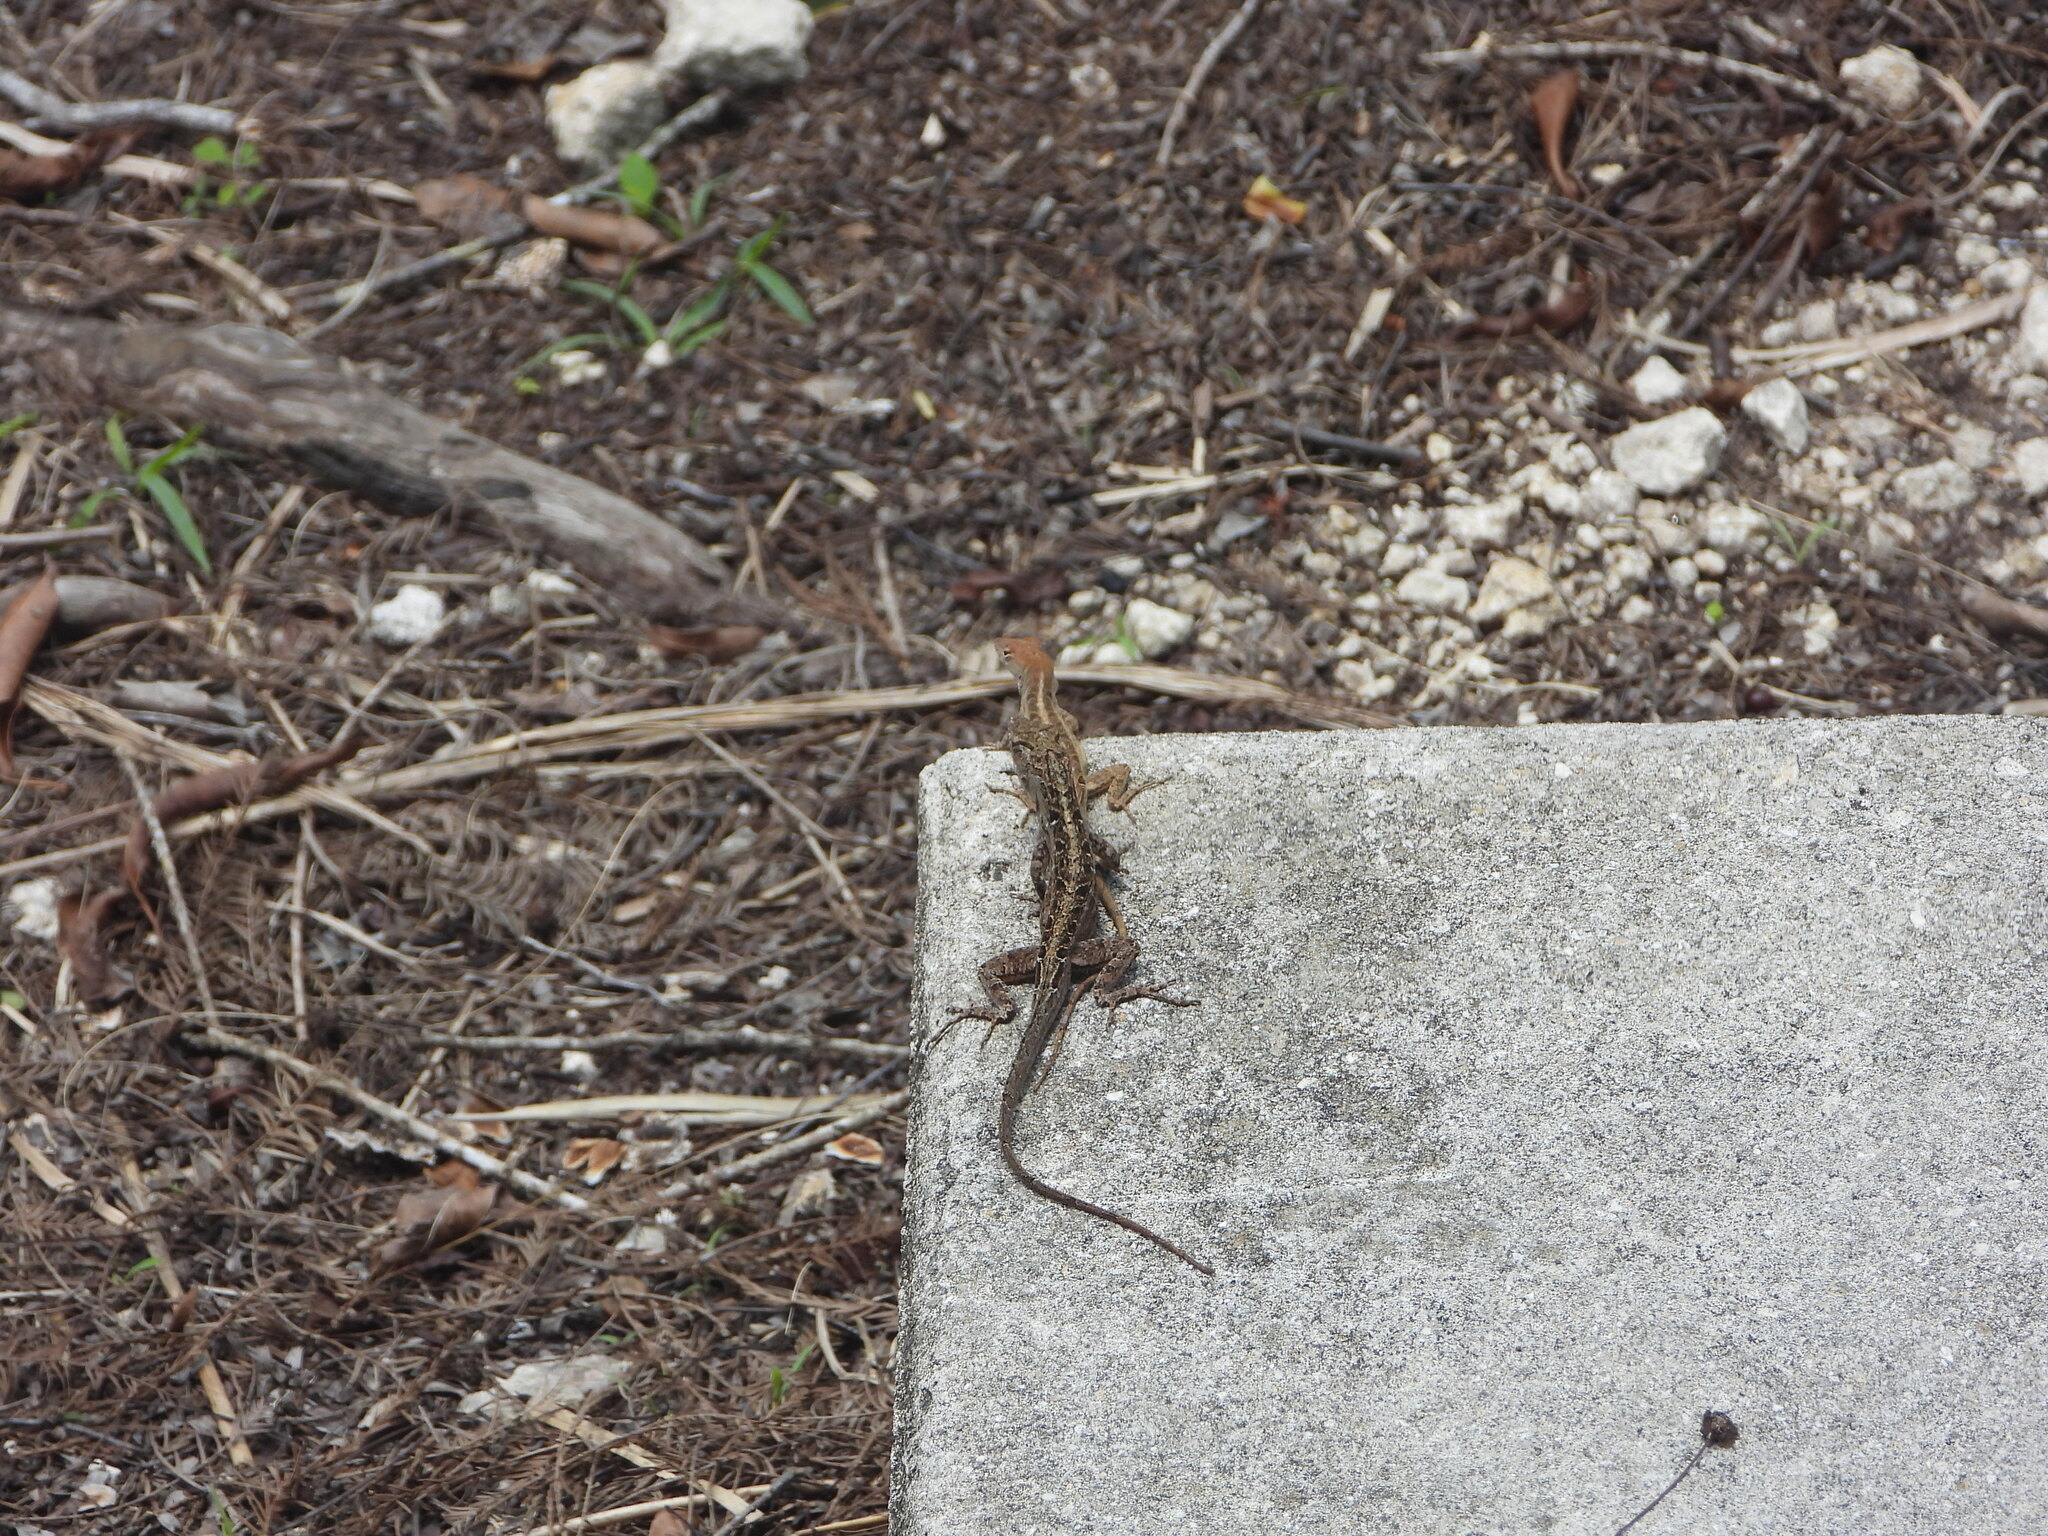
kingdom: Animalia
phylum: Chordata
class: Squamata
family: Dactyloidae
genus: Anolis
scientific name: Anolis sagrei
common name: Brown anole
